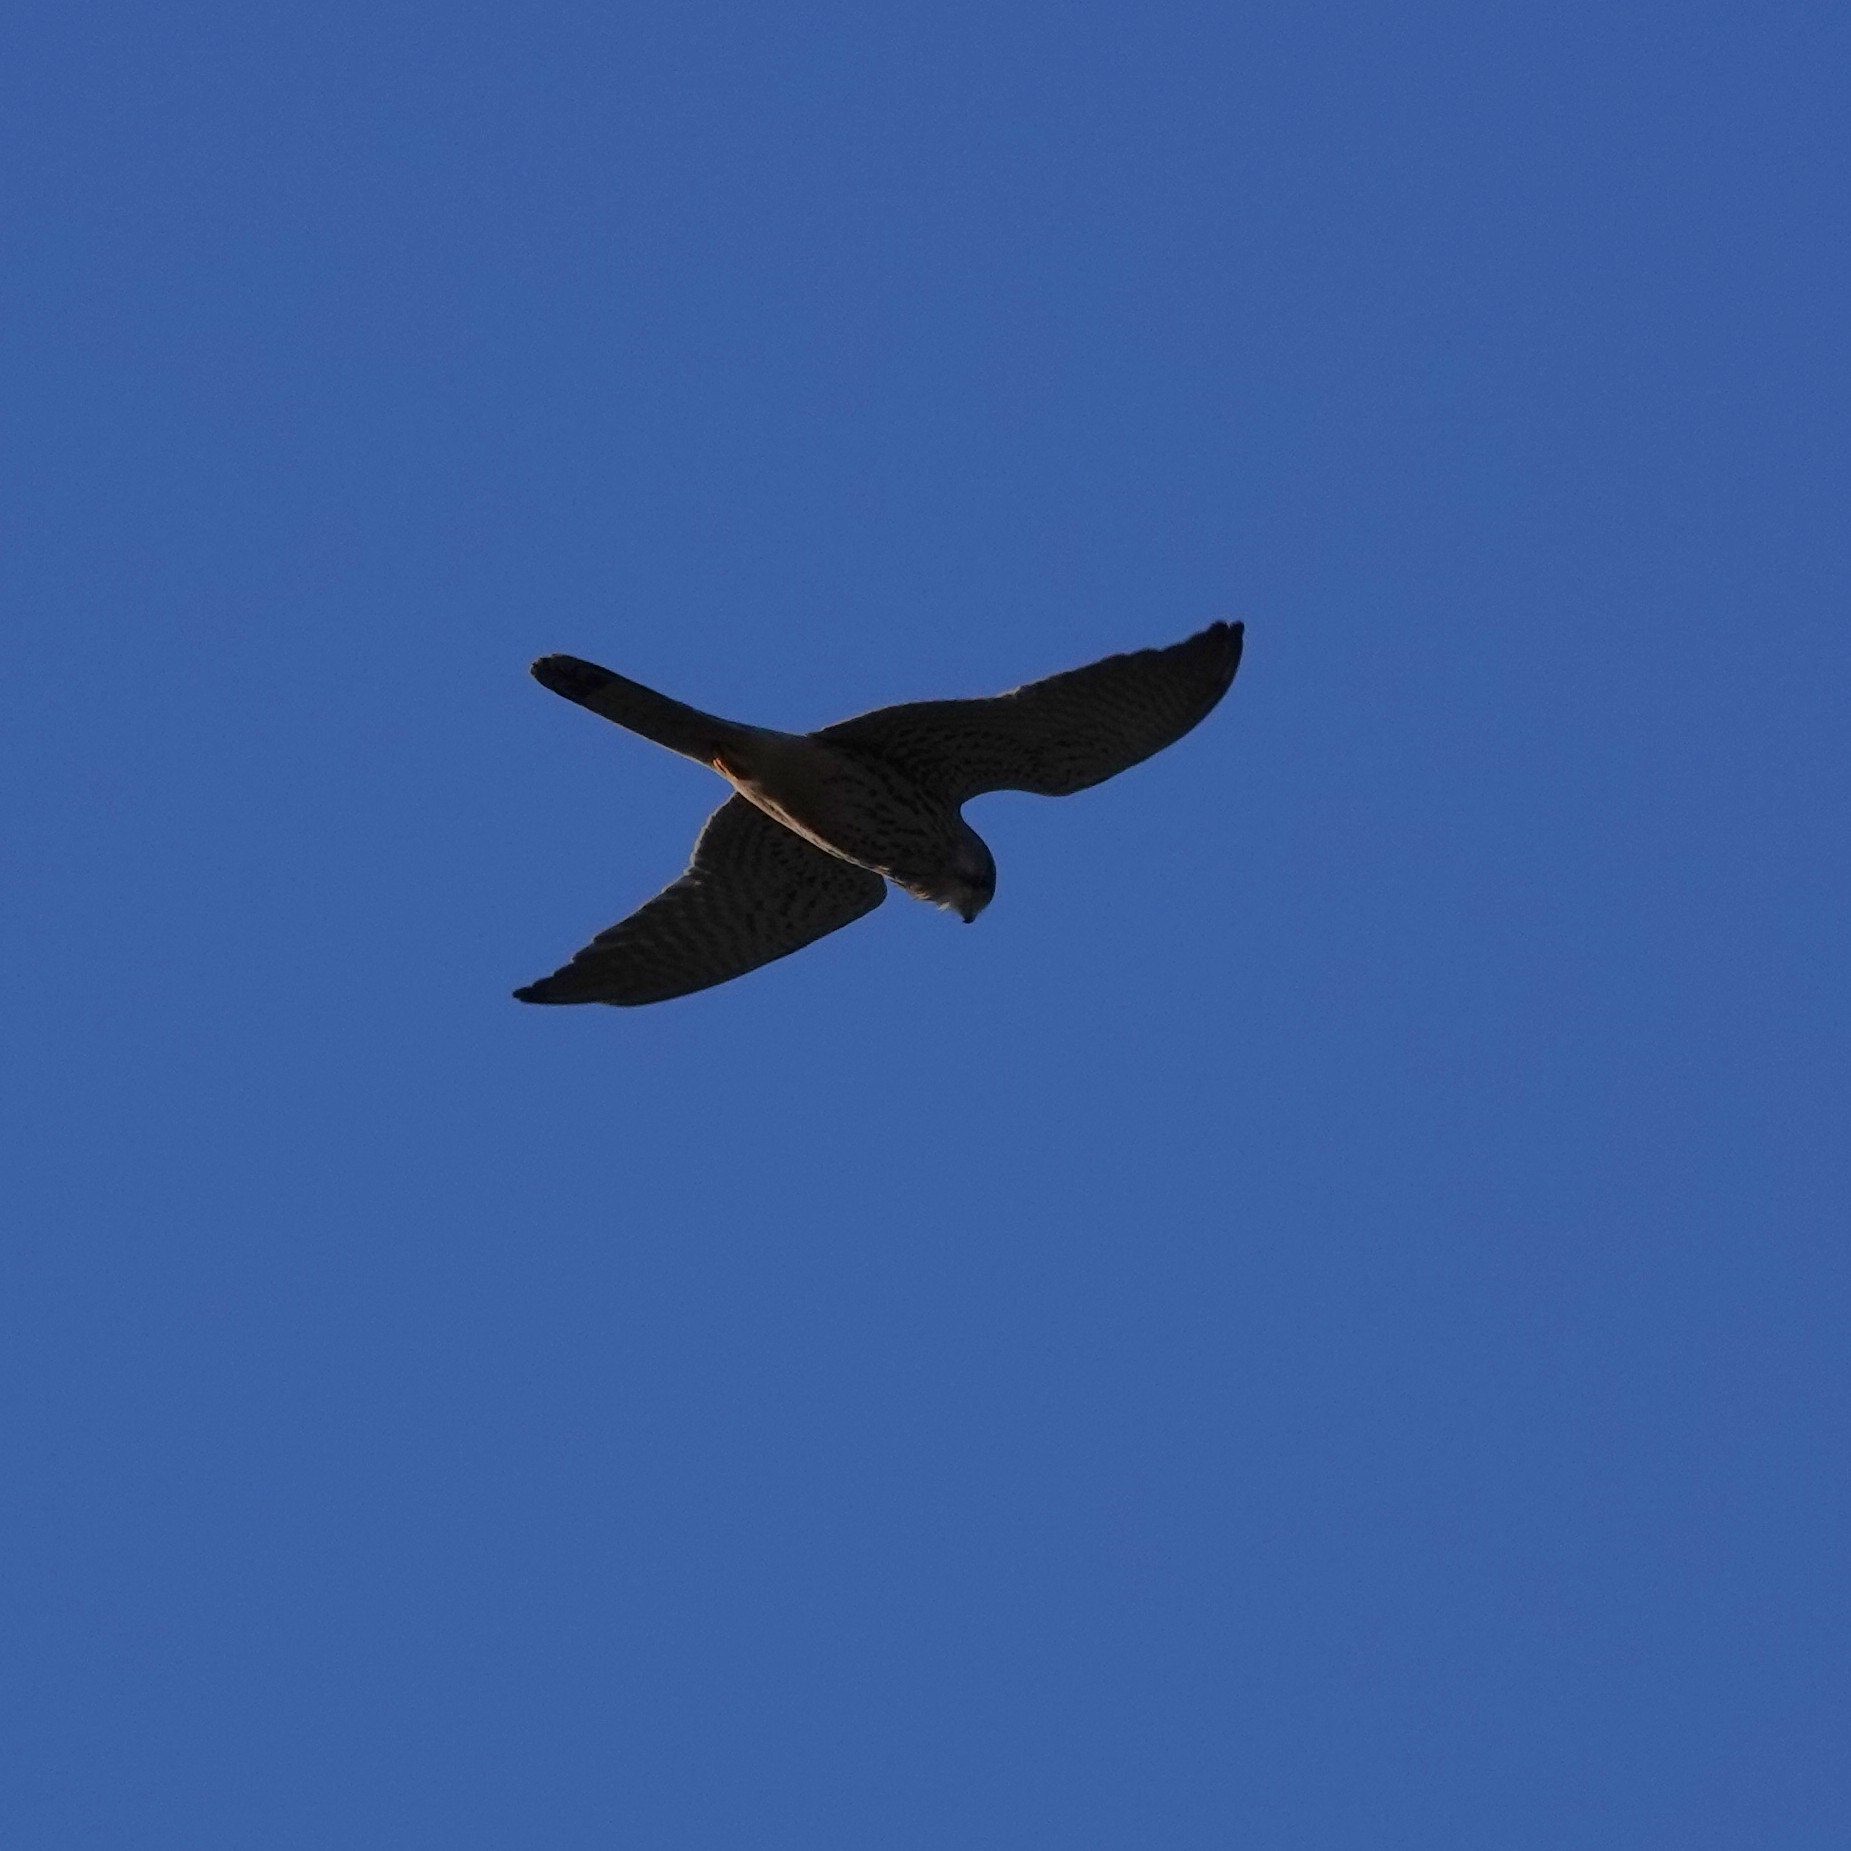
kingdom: Animalia
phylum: Chordata
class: Aves
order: Falconiformes
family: Falconidae
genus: Falco
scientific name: Falco tinnunculus
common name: Common kestrel
